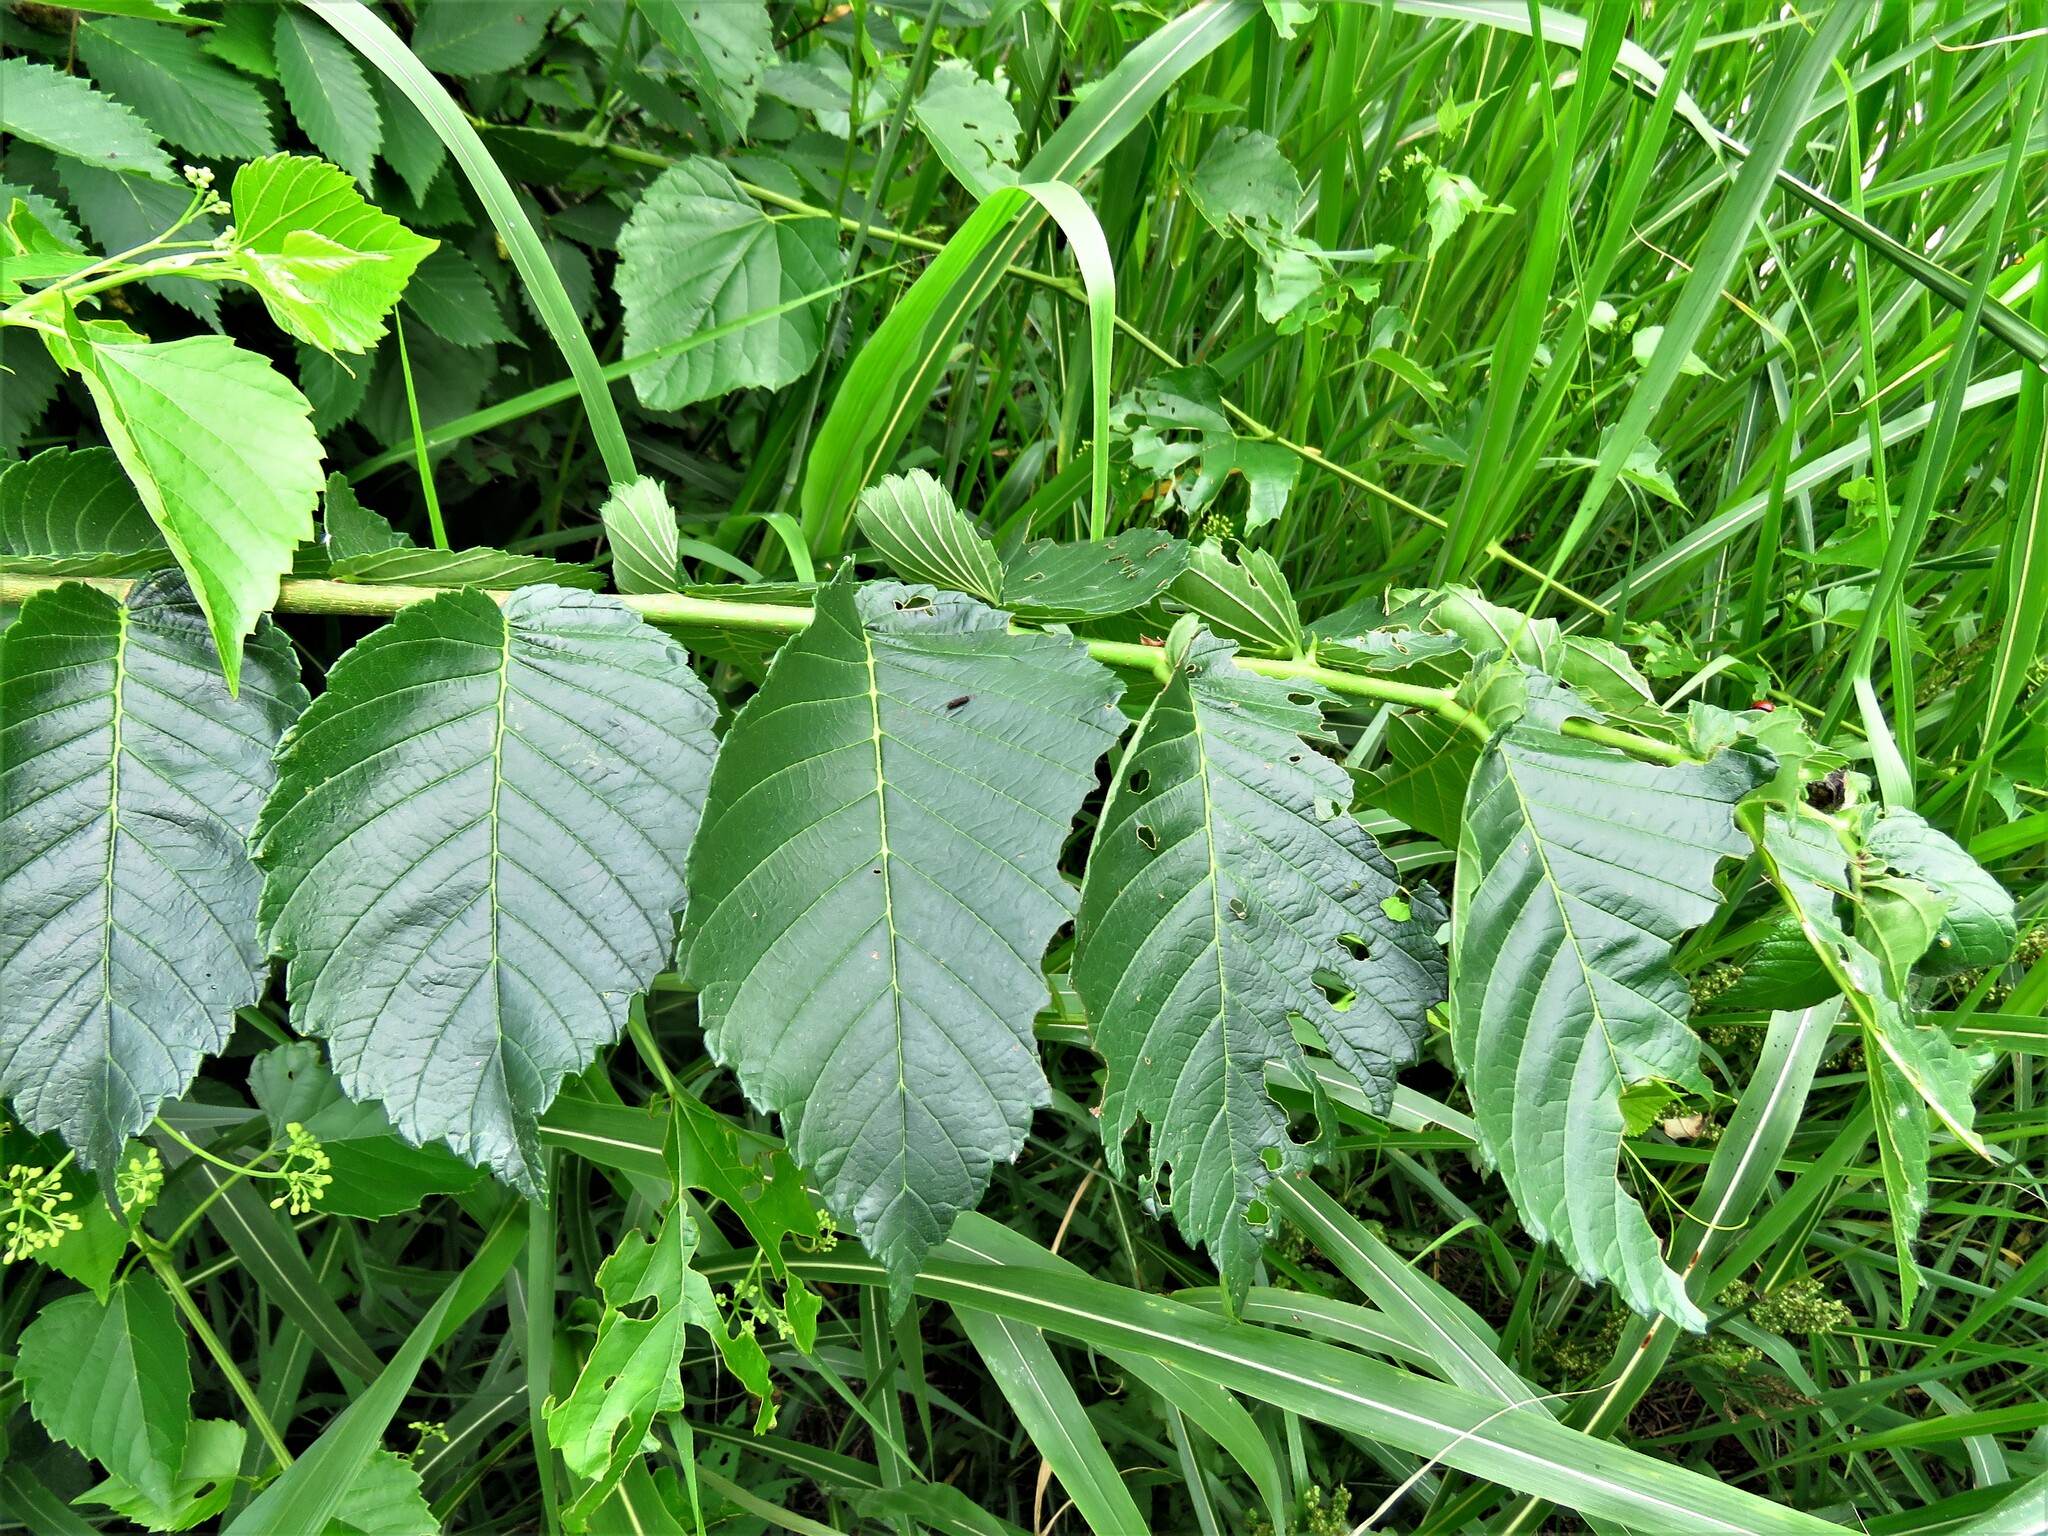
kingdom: Plantae
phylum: Tracheophyta
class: Magnoliopsida
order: Rosales
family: Ulmaceae
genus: Ulmus
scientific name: Ulmus americana
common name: American elm
